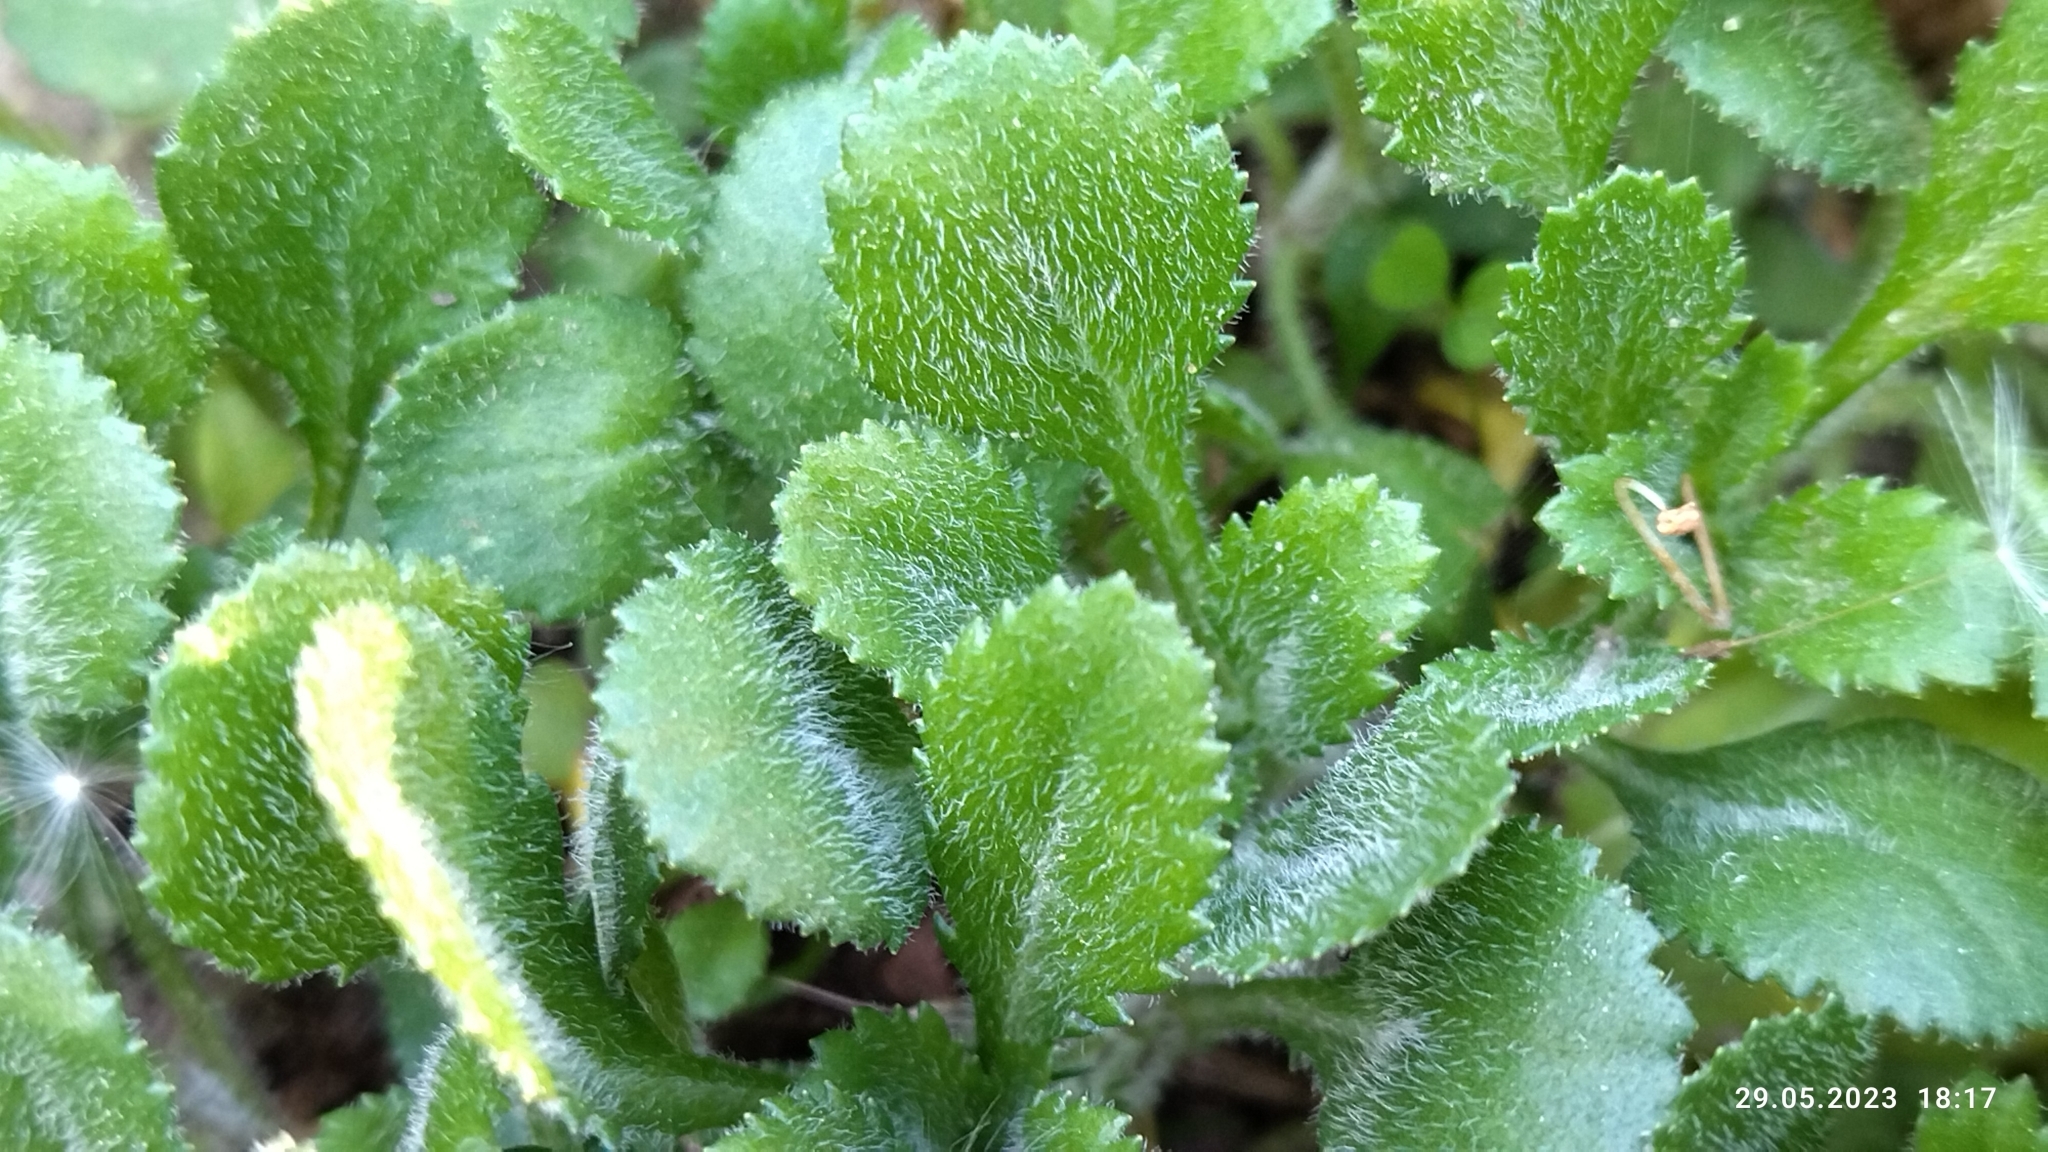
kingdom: Plantae
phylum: Tracheophyta
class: Magnoliopsida
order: Asterales
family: Asteraceae
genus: Leucanthemum
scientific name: Leucanthemum vulgare
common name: Oxeye daisy
